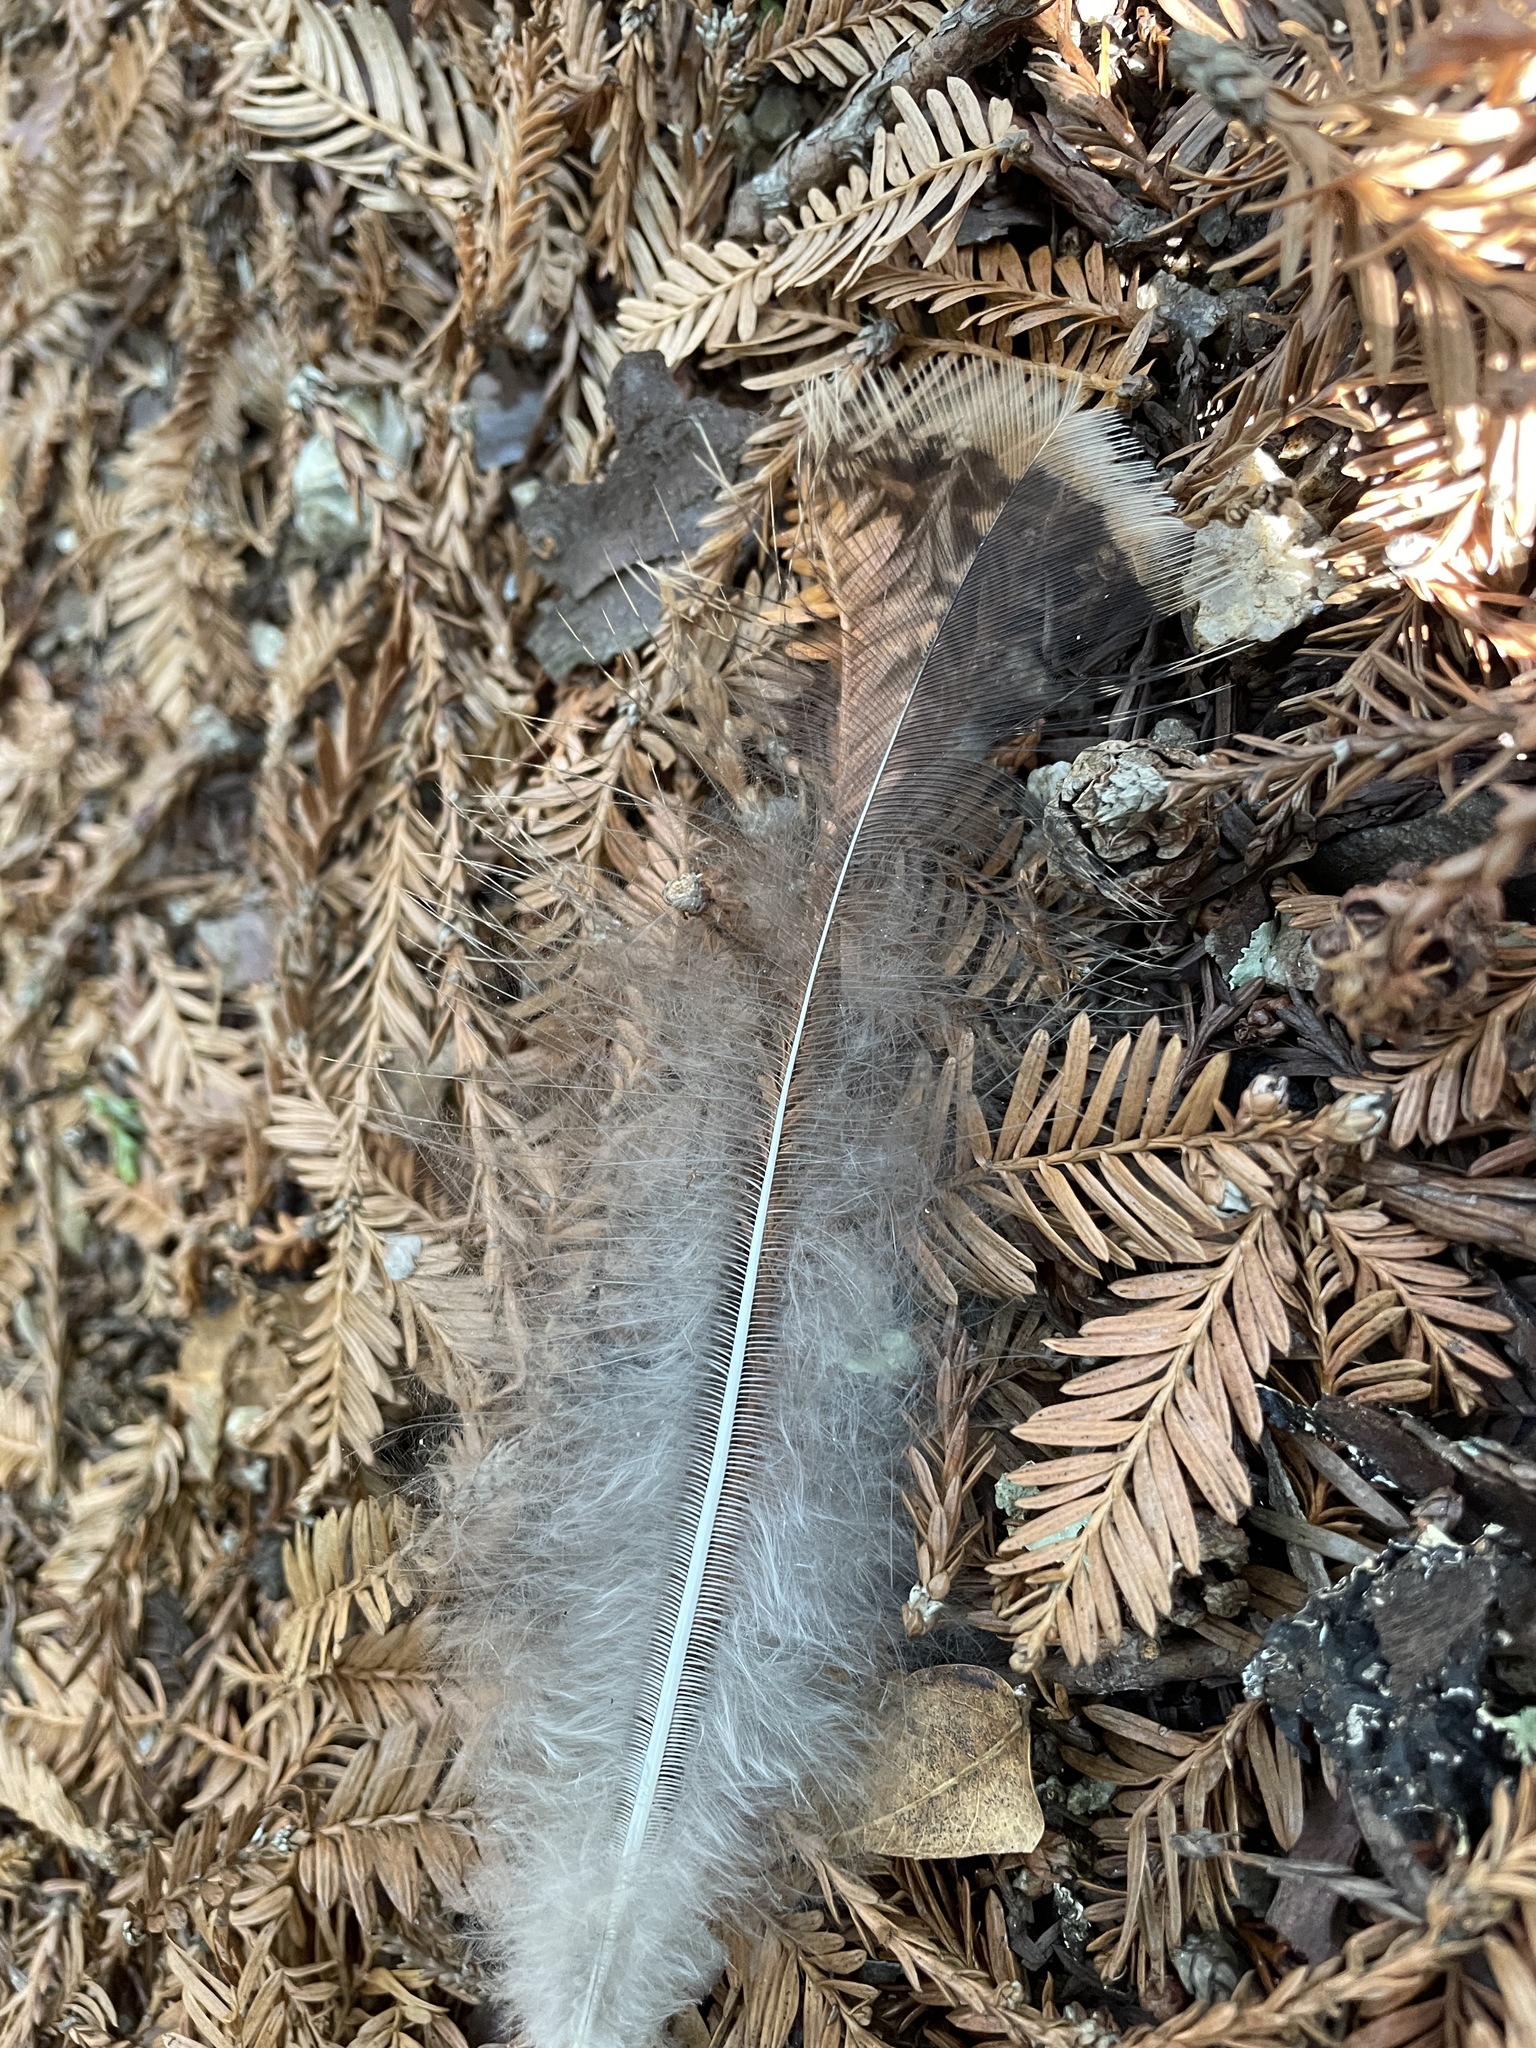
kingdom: Animalia
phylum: Chordata
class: Aves
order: Galliformes
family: Phasianidae
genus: Meleagris
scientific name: Meleagris gallopavo
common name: Wild turkey
